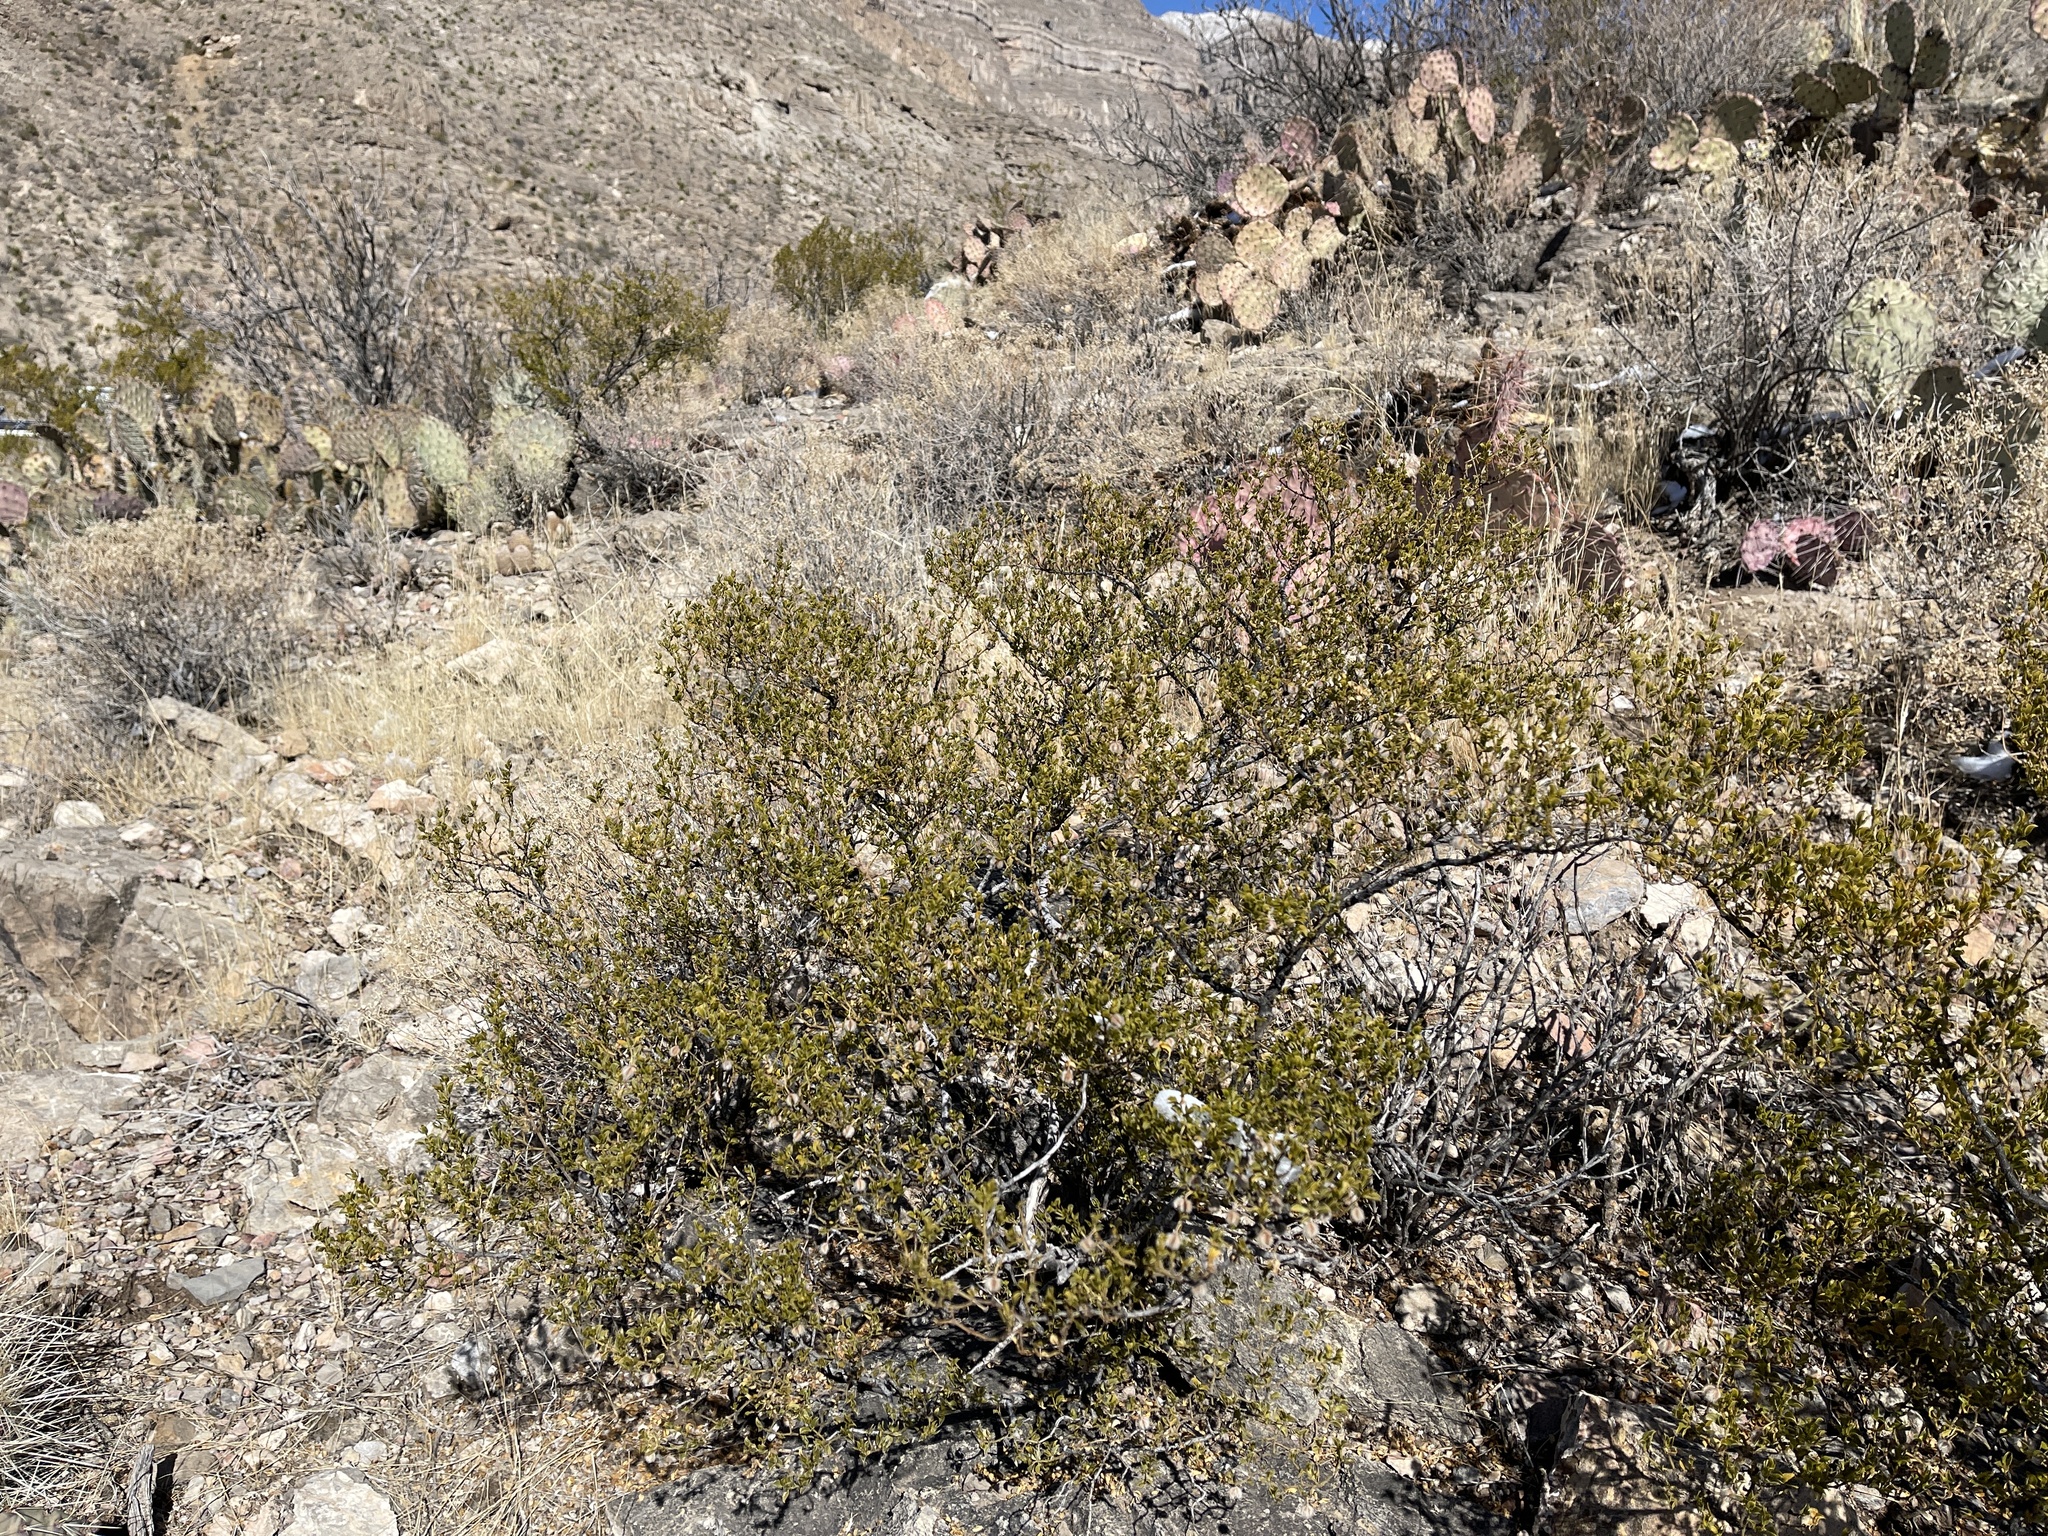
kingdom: Plantae
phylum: Tracheophyta
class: Magnoliopsida
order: Zygophyllales
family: Zygophyllaceae
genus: Larrea
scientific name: Larrea tridentata
